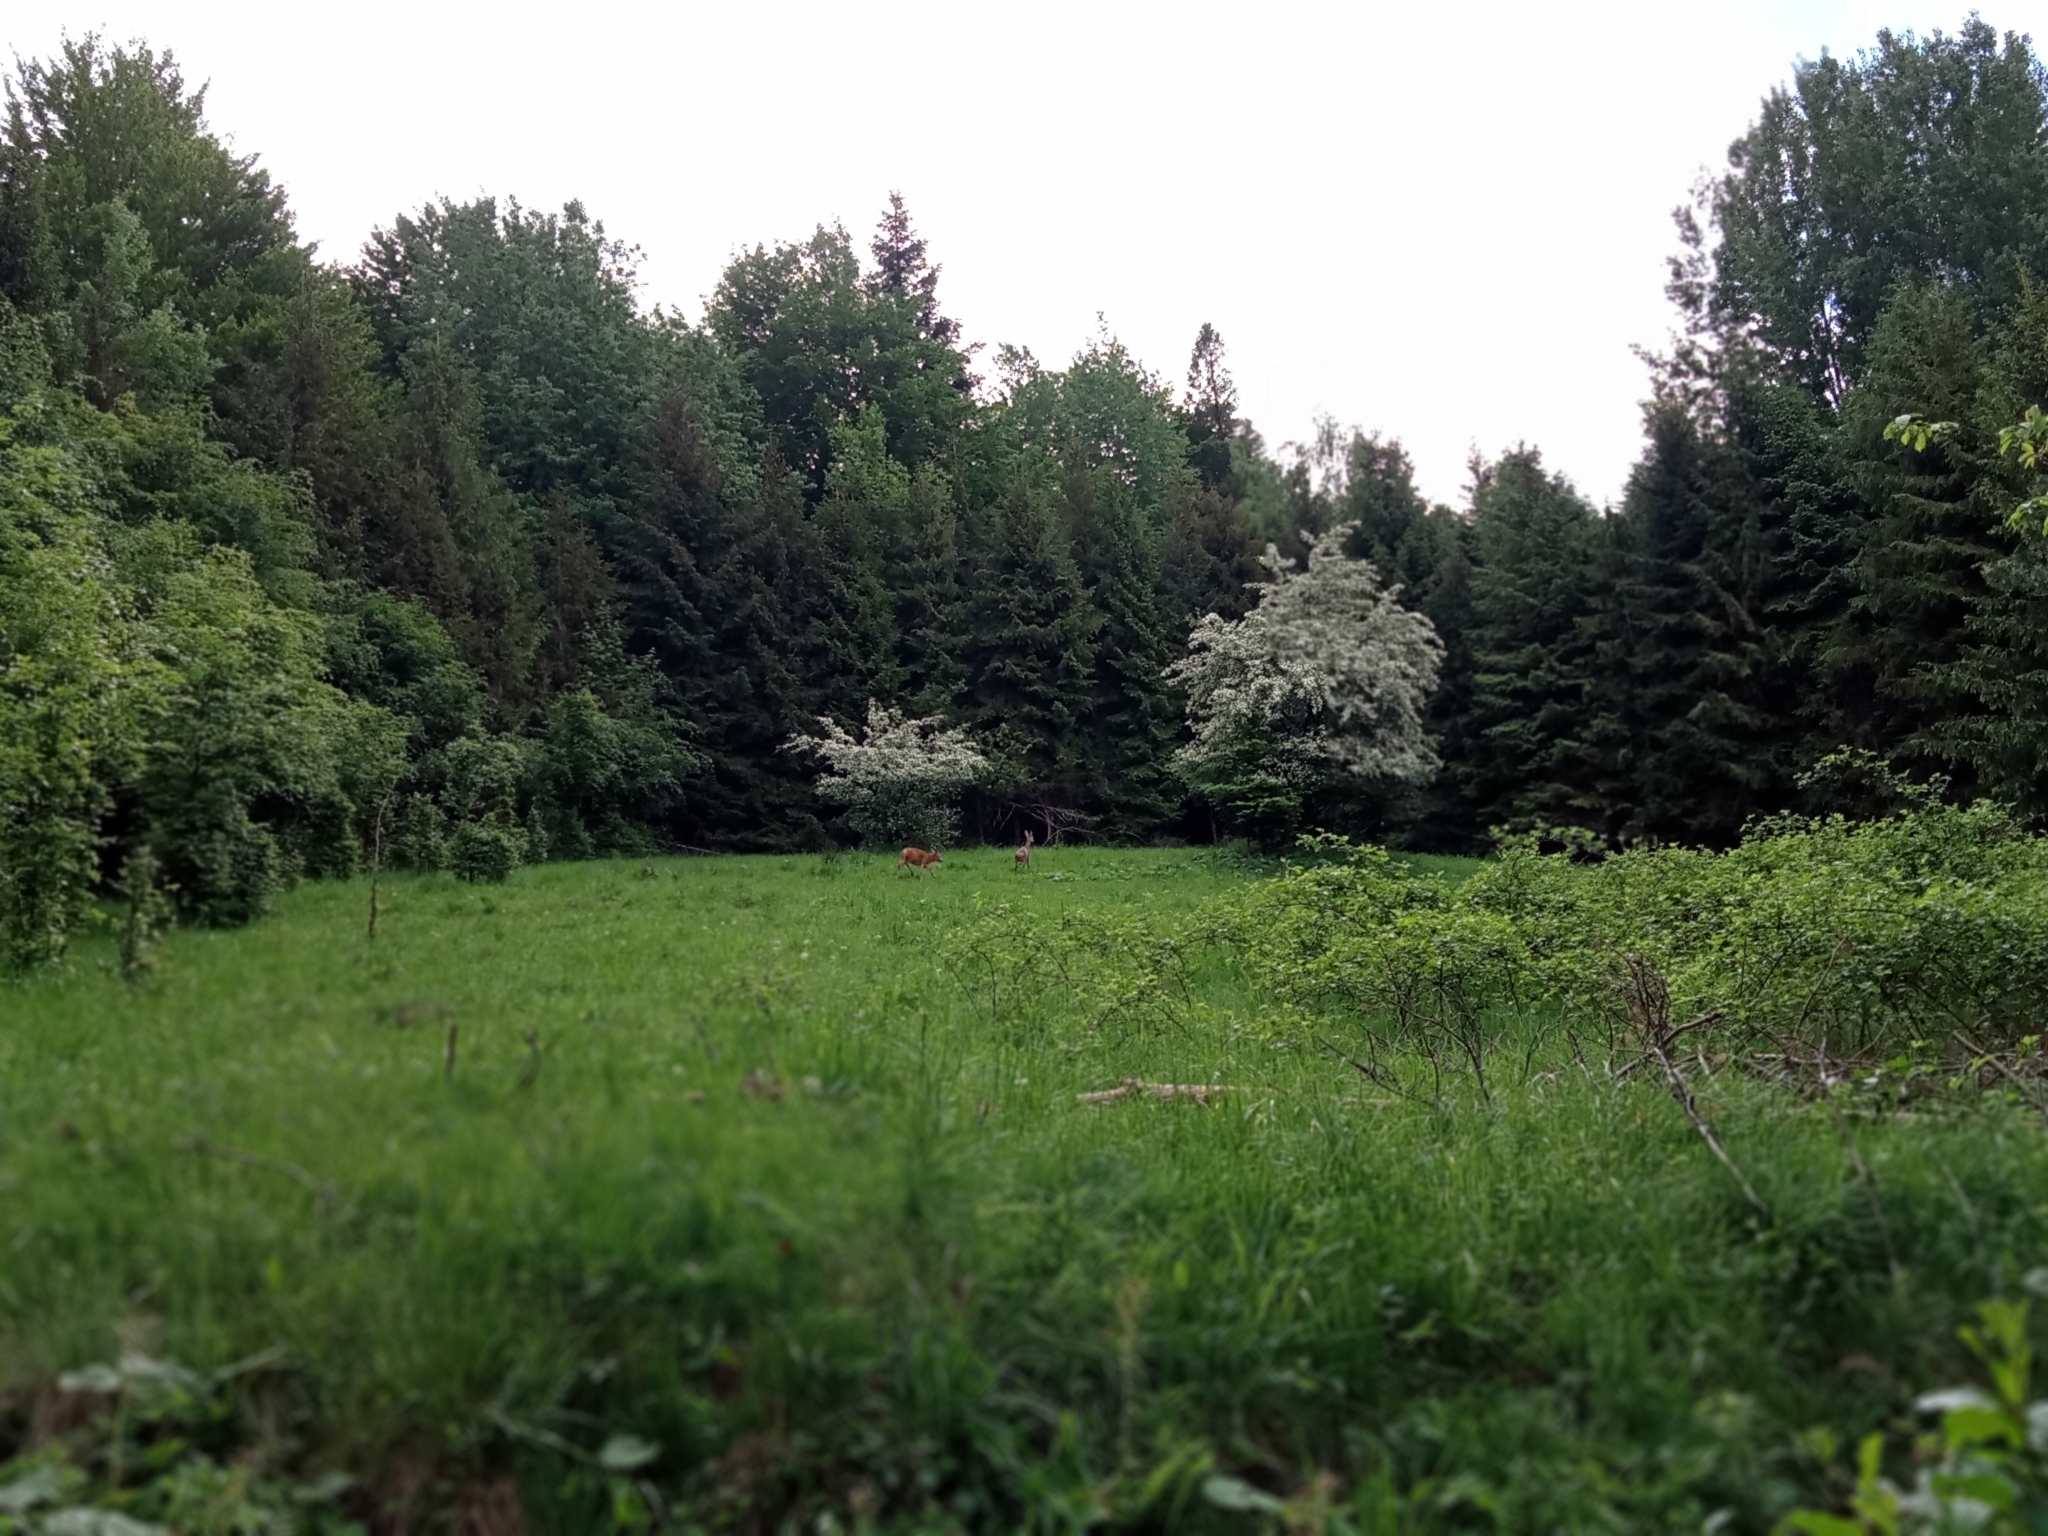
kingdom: Animalia
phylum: Chordata
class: Mammalia
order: Artiodactyla
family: Cervidae
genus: Capreolus
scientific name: Capreolus capreolus
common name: Western roe deer
